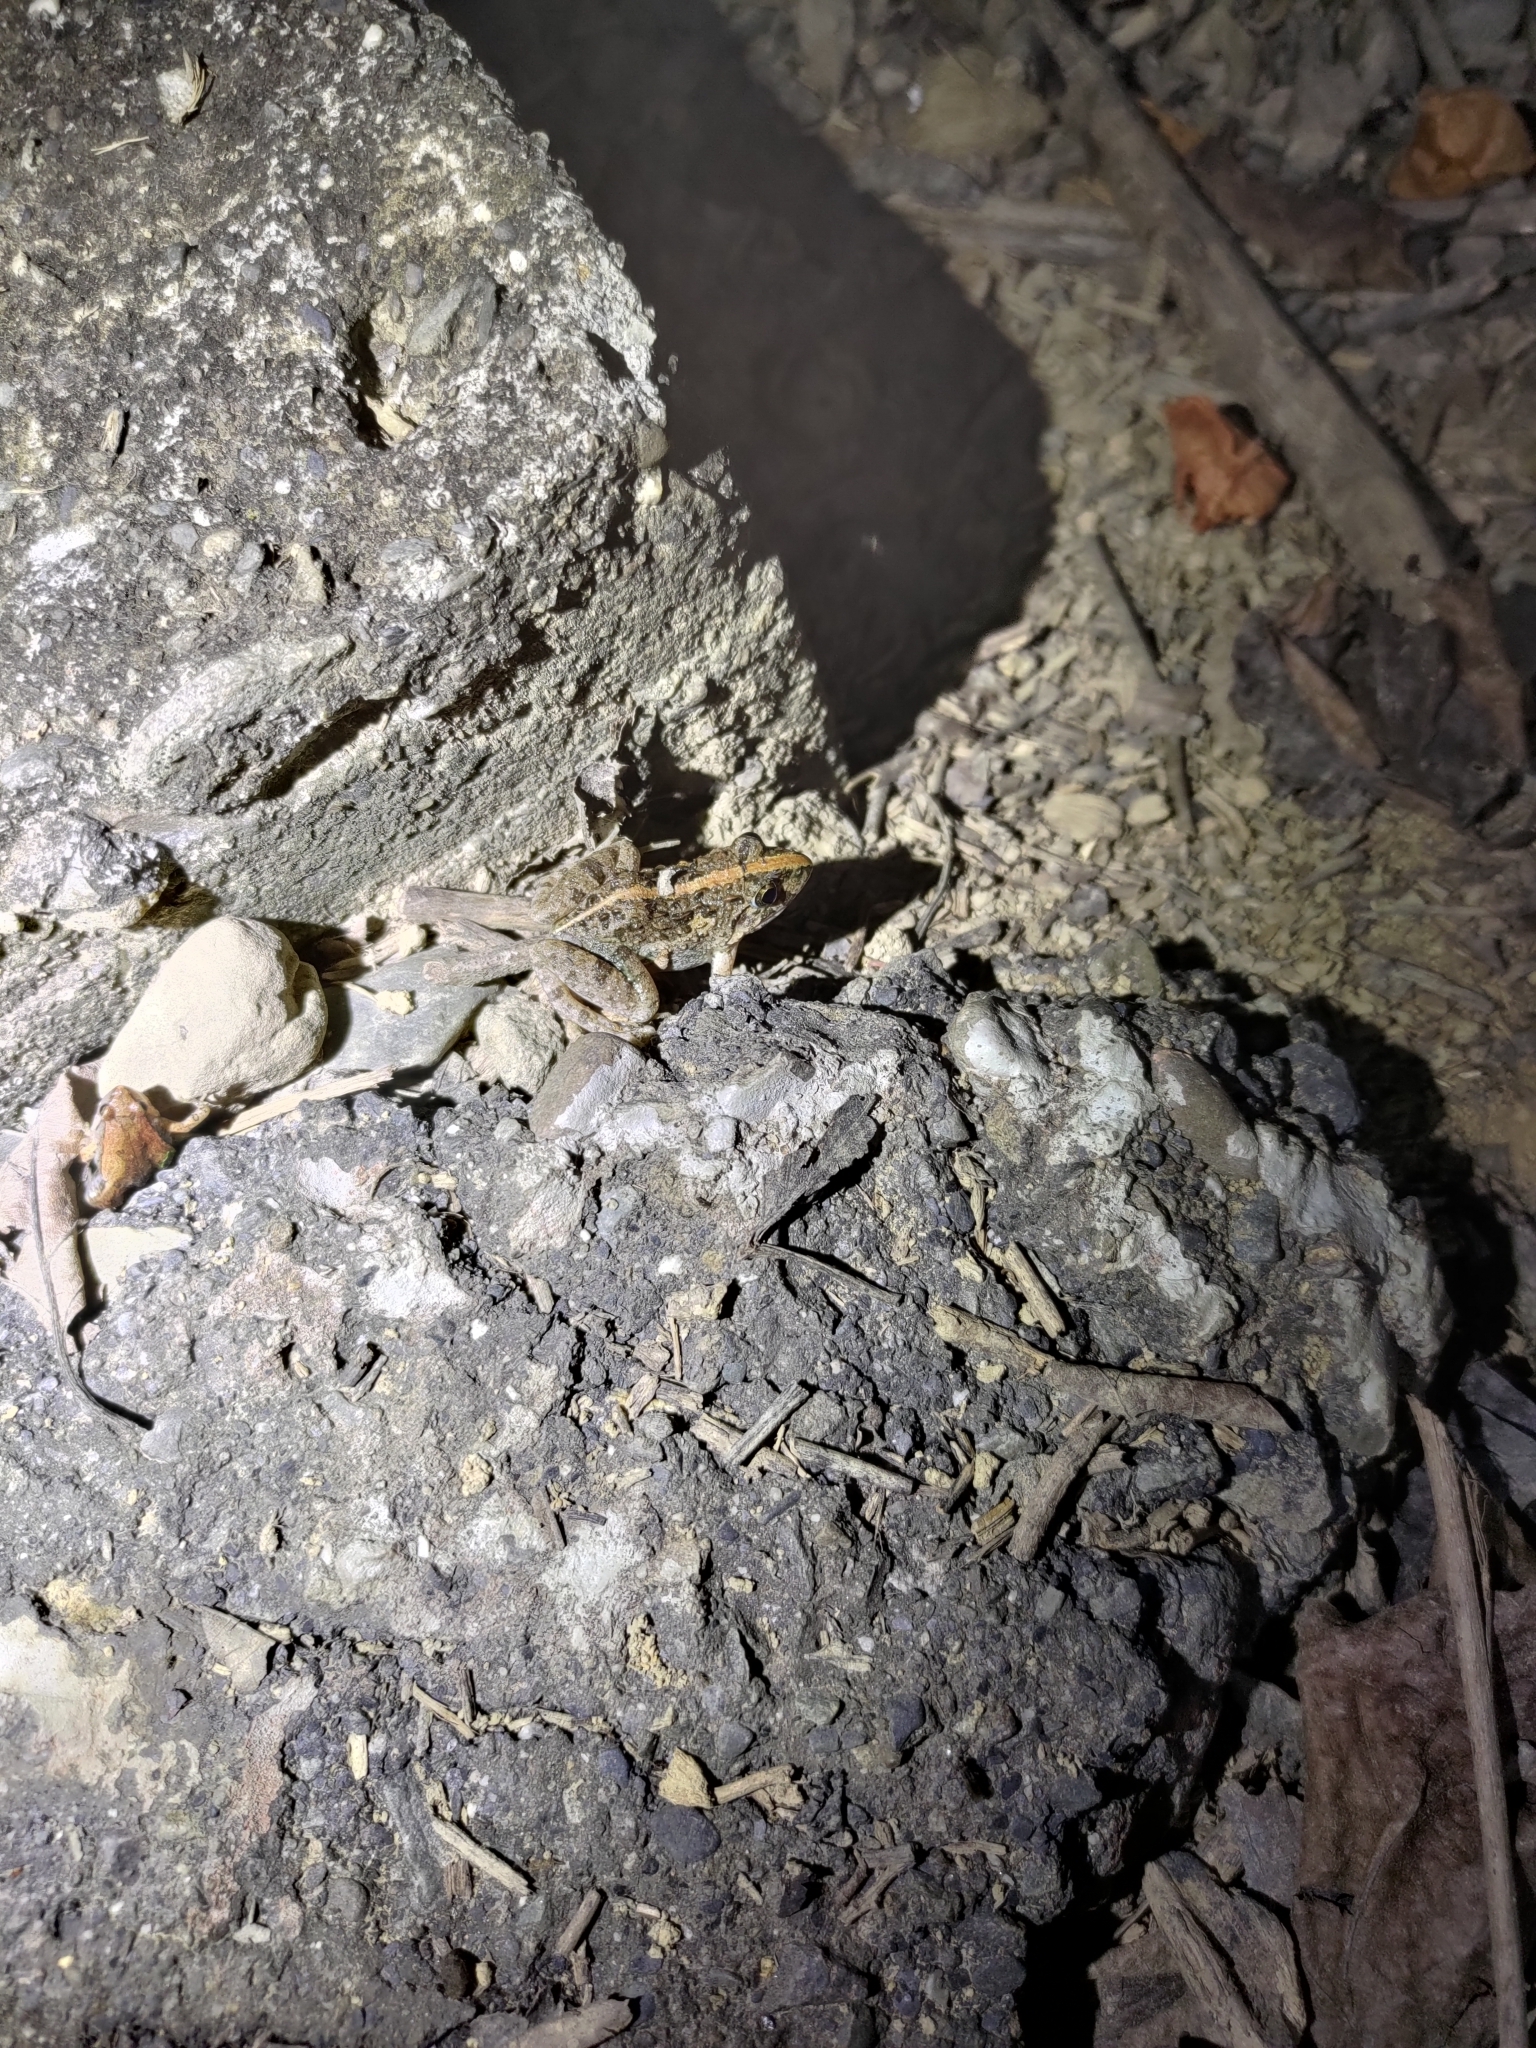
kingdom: Animalia
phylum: Chordata
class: Amphibia
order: Anura
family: Dicroglossidae
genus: Fejervarya
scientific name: Fejervarya limnocharis
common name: Asian grass frog/common pond frog/field frog/grass frog/indian rice frog
